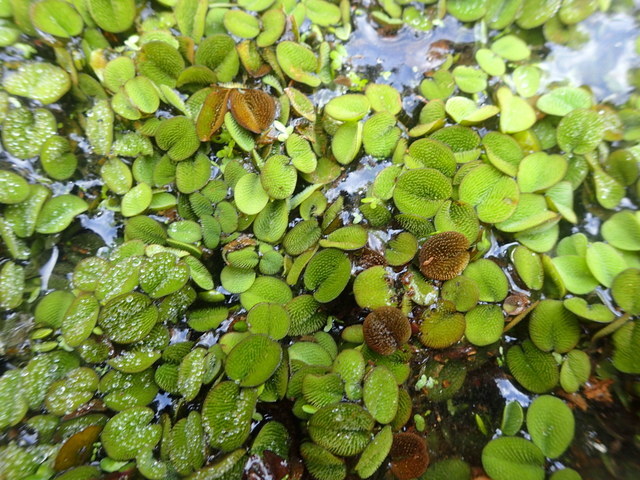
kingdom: Plantae
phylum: Tracheophyta
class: Polypodiopsida
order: Salviniales
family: Salviniaceae
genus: Salvinia
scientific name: Salvinia minima
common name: Water spangles
